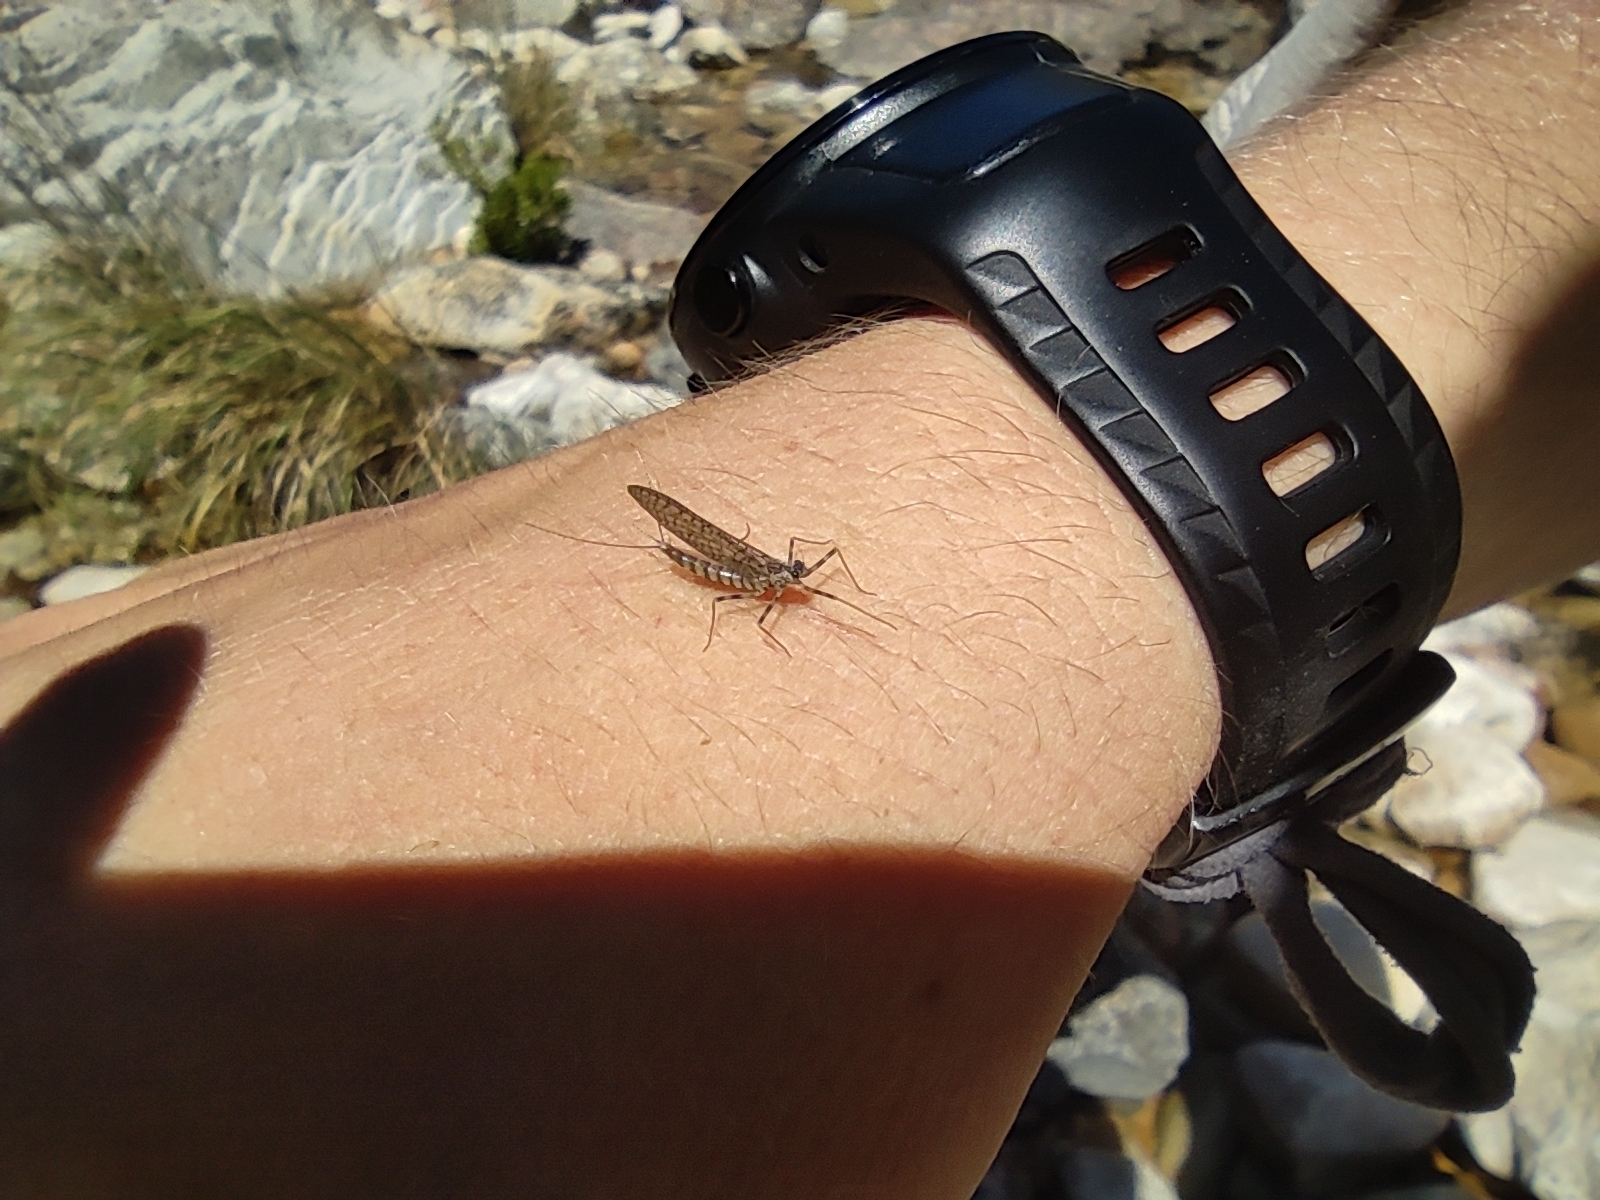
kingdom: Animalia
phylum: Arthropoda
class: Insecta
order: Ephemeroptera
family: Leptophlebiidae
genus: Aprionyx
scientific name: Aprionyx peterseni
